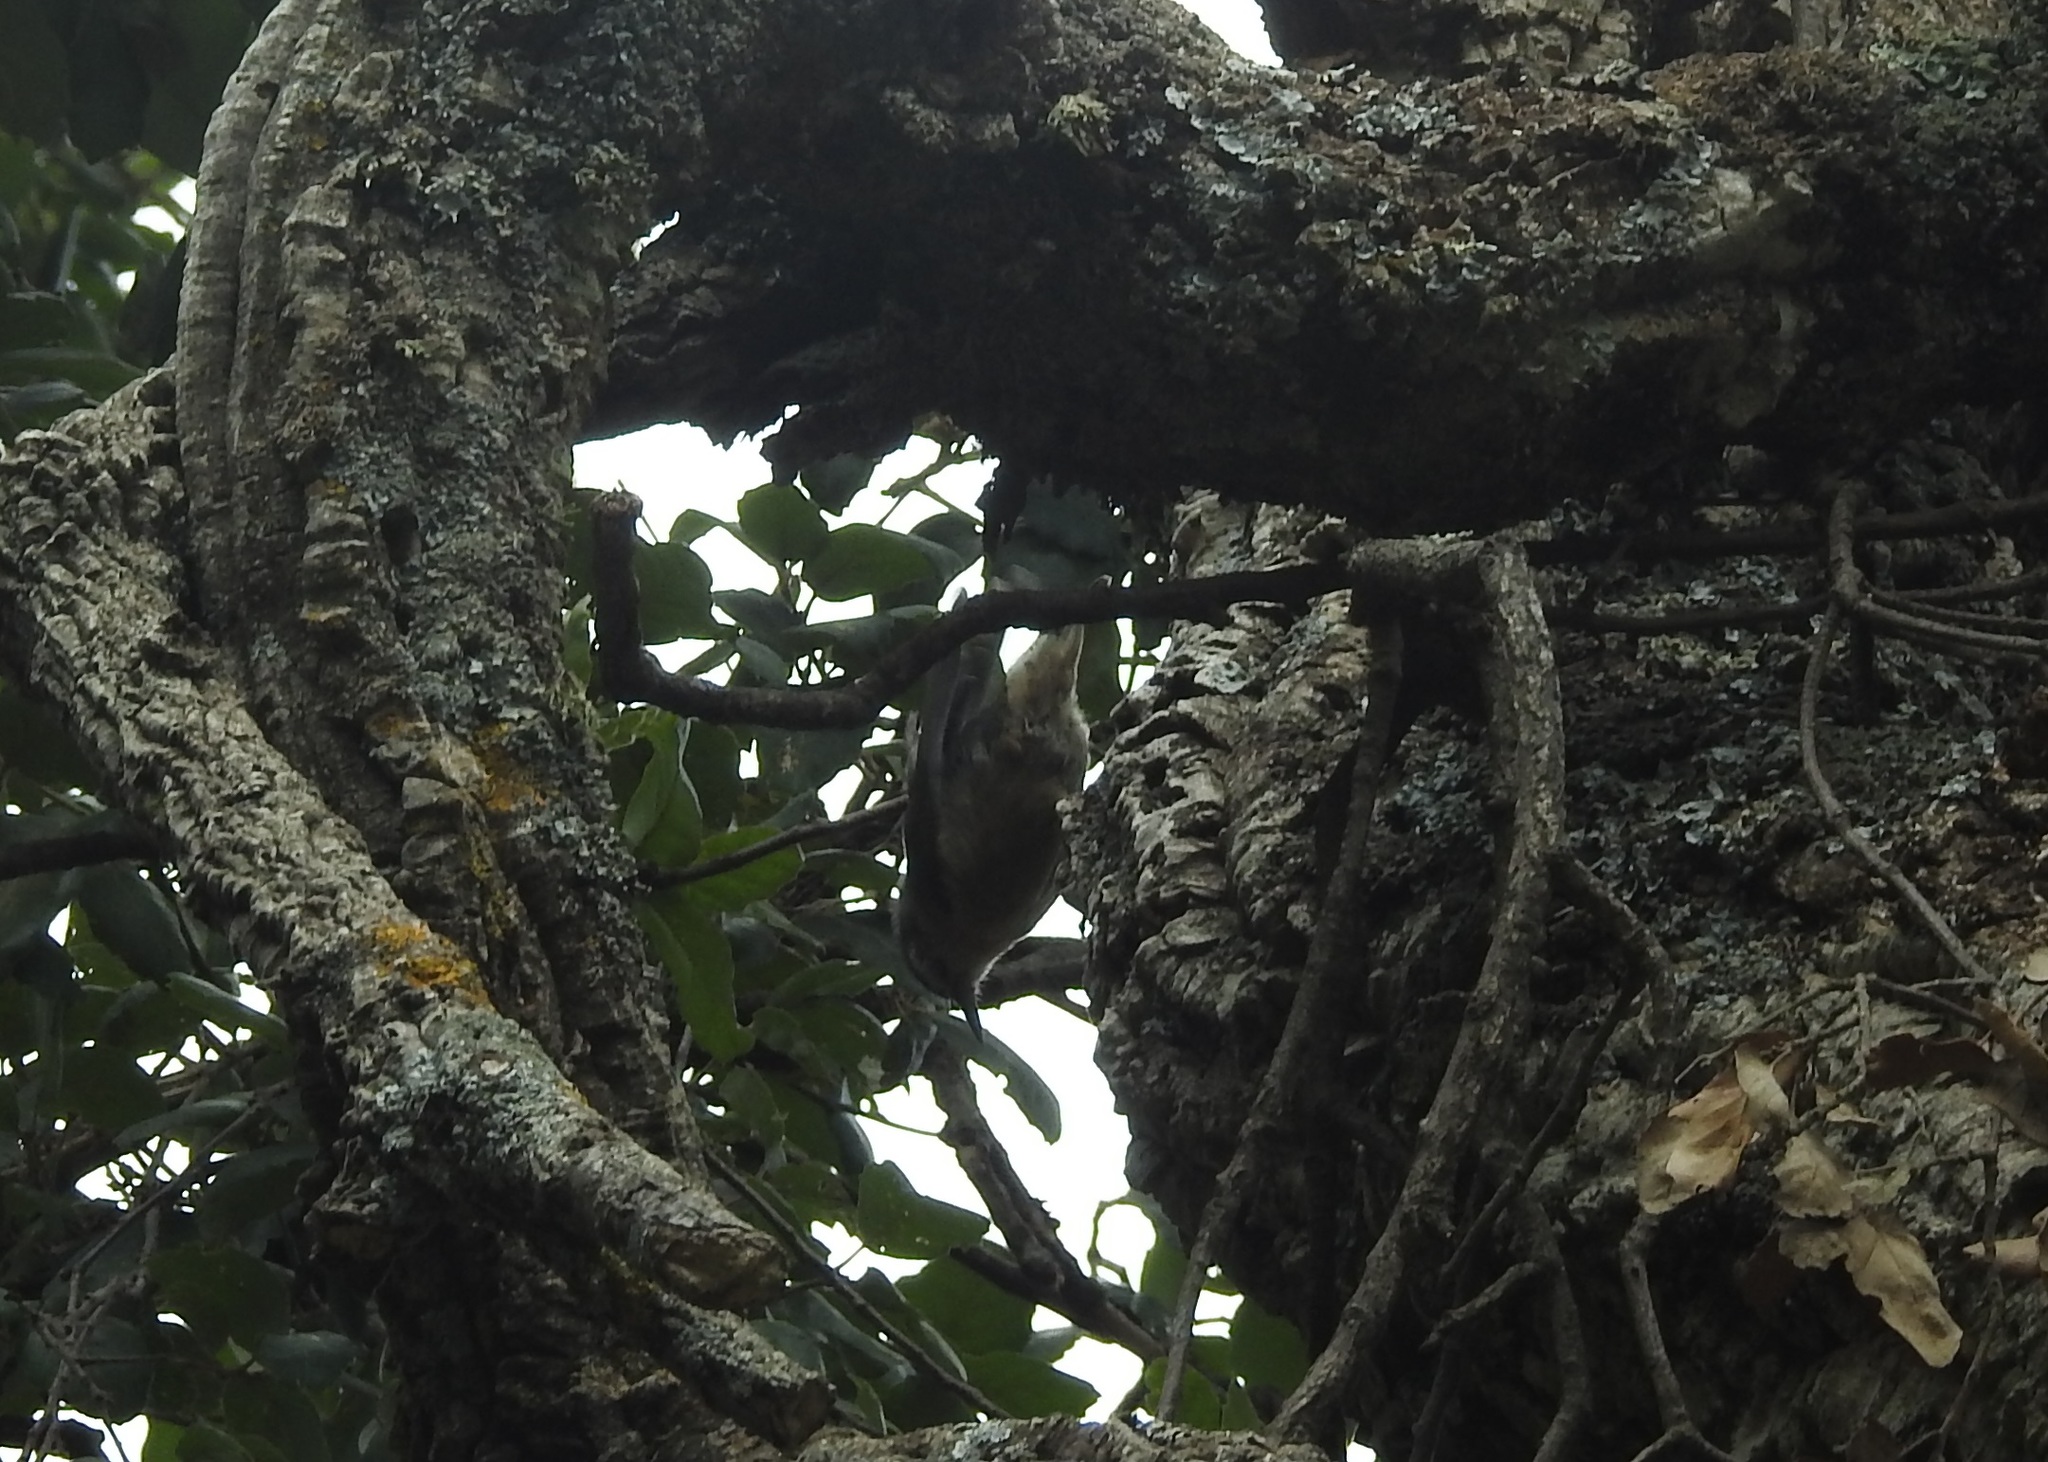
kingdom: Animalia
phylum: Chordata
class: Aves
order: Passeriformes
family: Sittidae
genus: Sitta
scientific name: Sitta ledanti
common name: Algerian nuthatch
